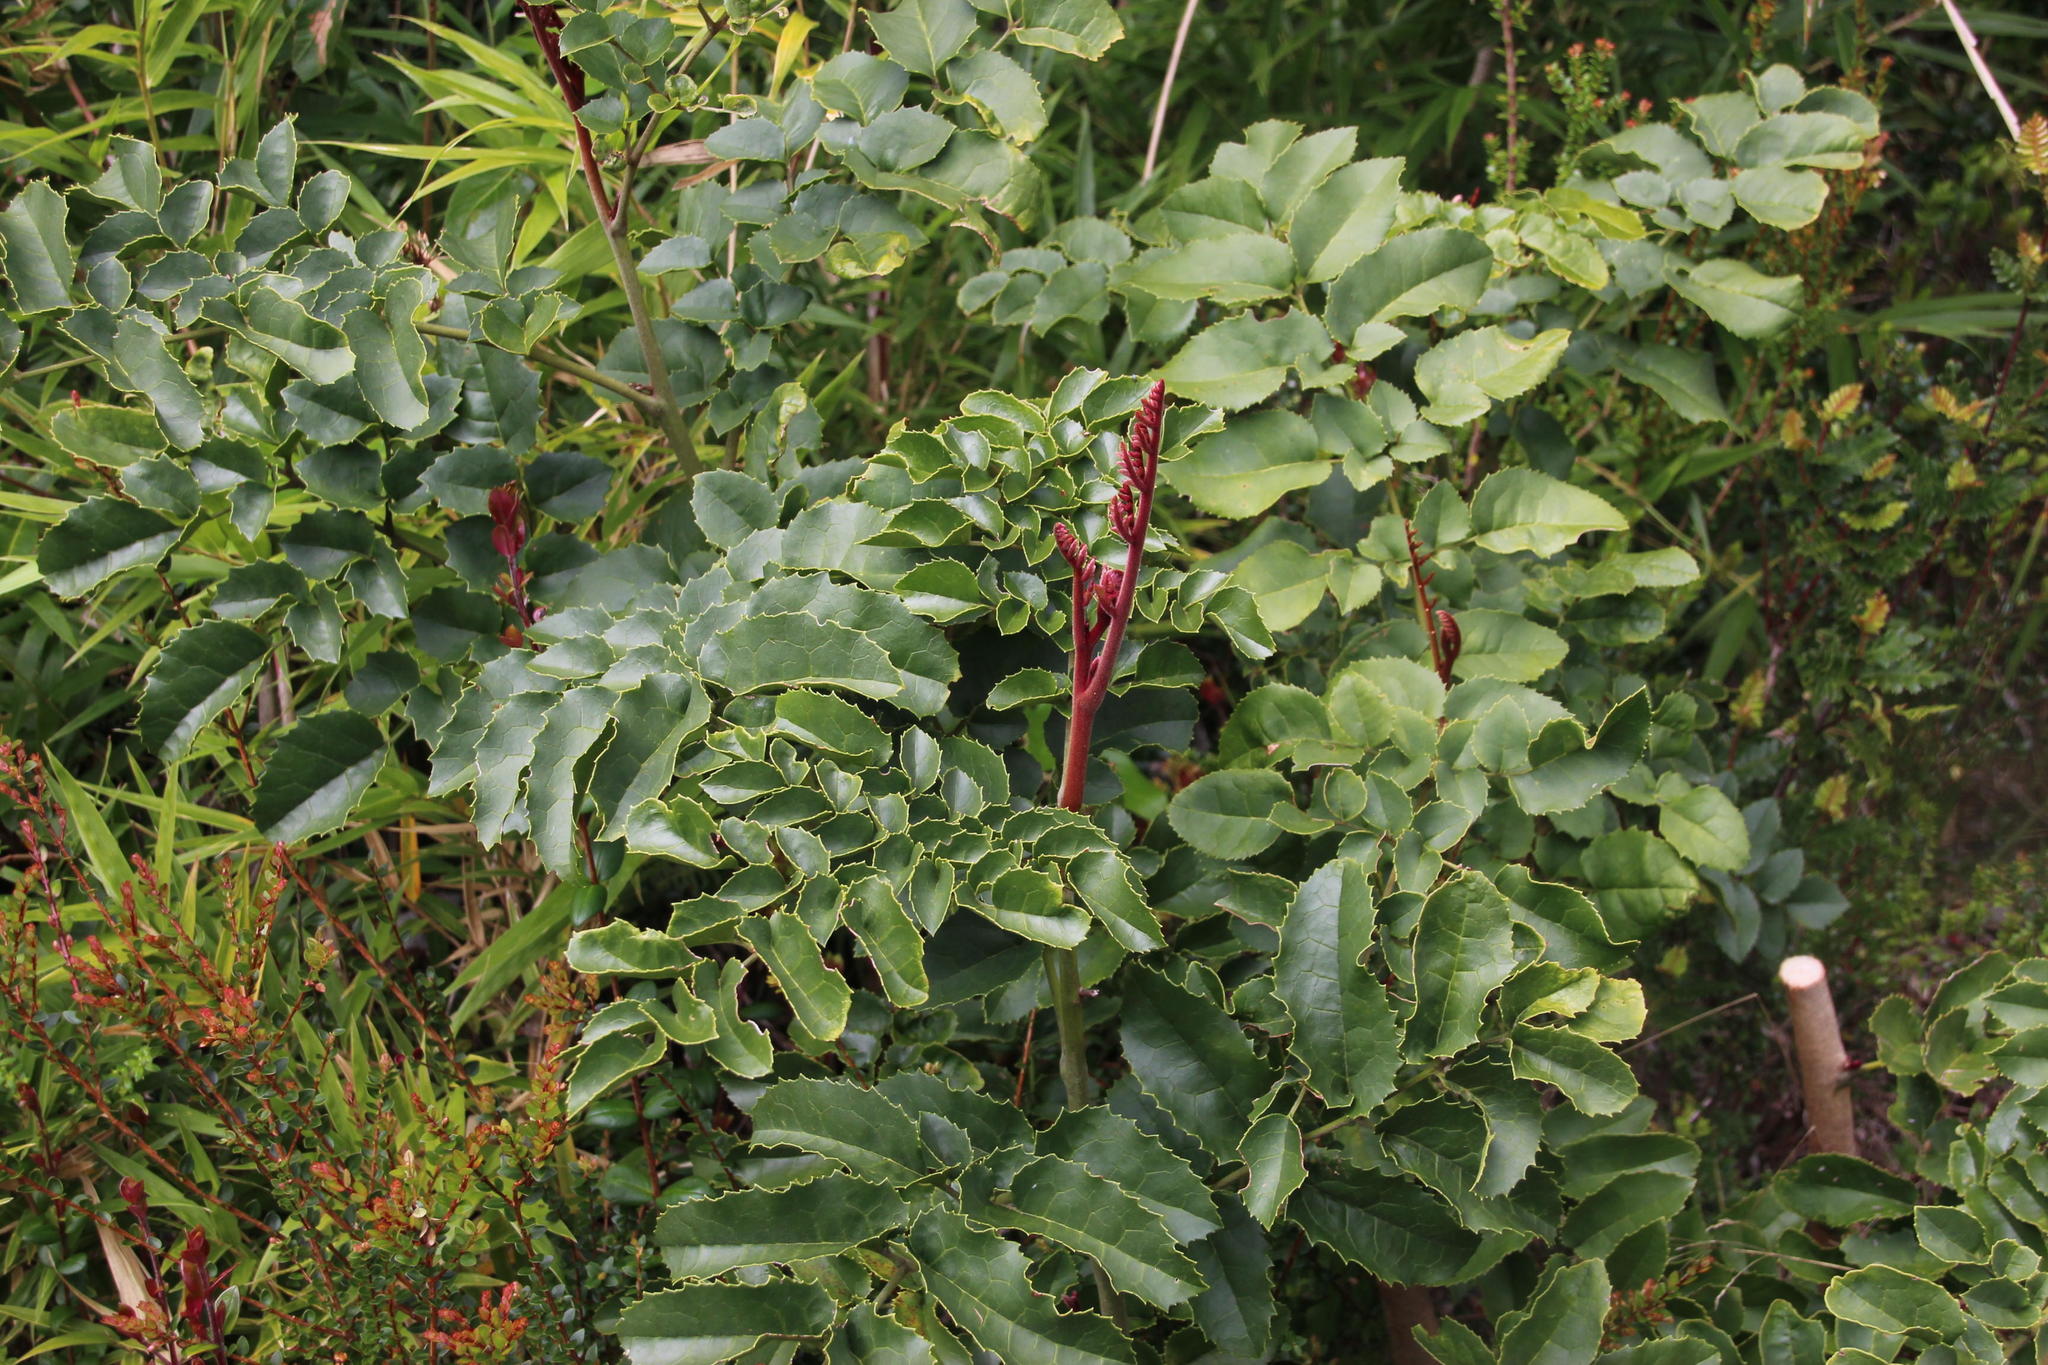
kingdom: Plantae
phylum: Tracheophyta
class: Magnoliopsida
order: Proteales
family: Proteaceae
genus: Gevuina
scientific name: Gevuina avellana
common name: Chilean hazel
